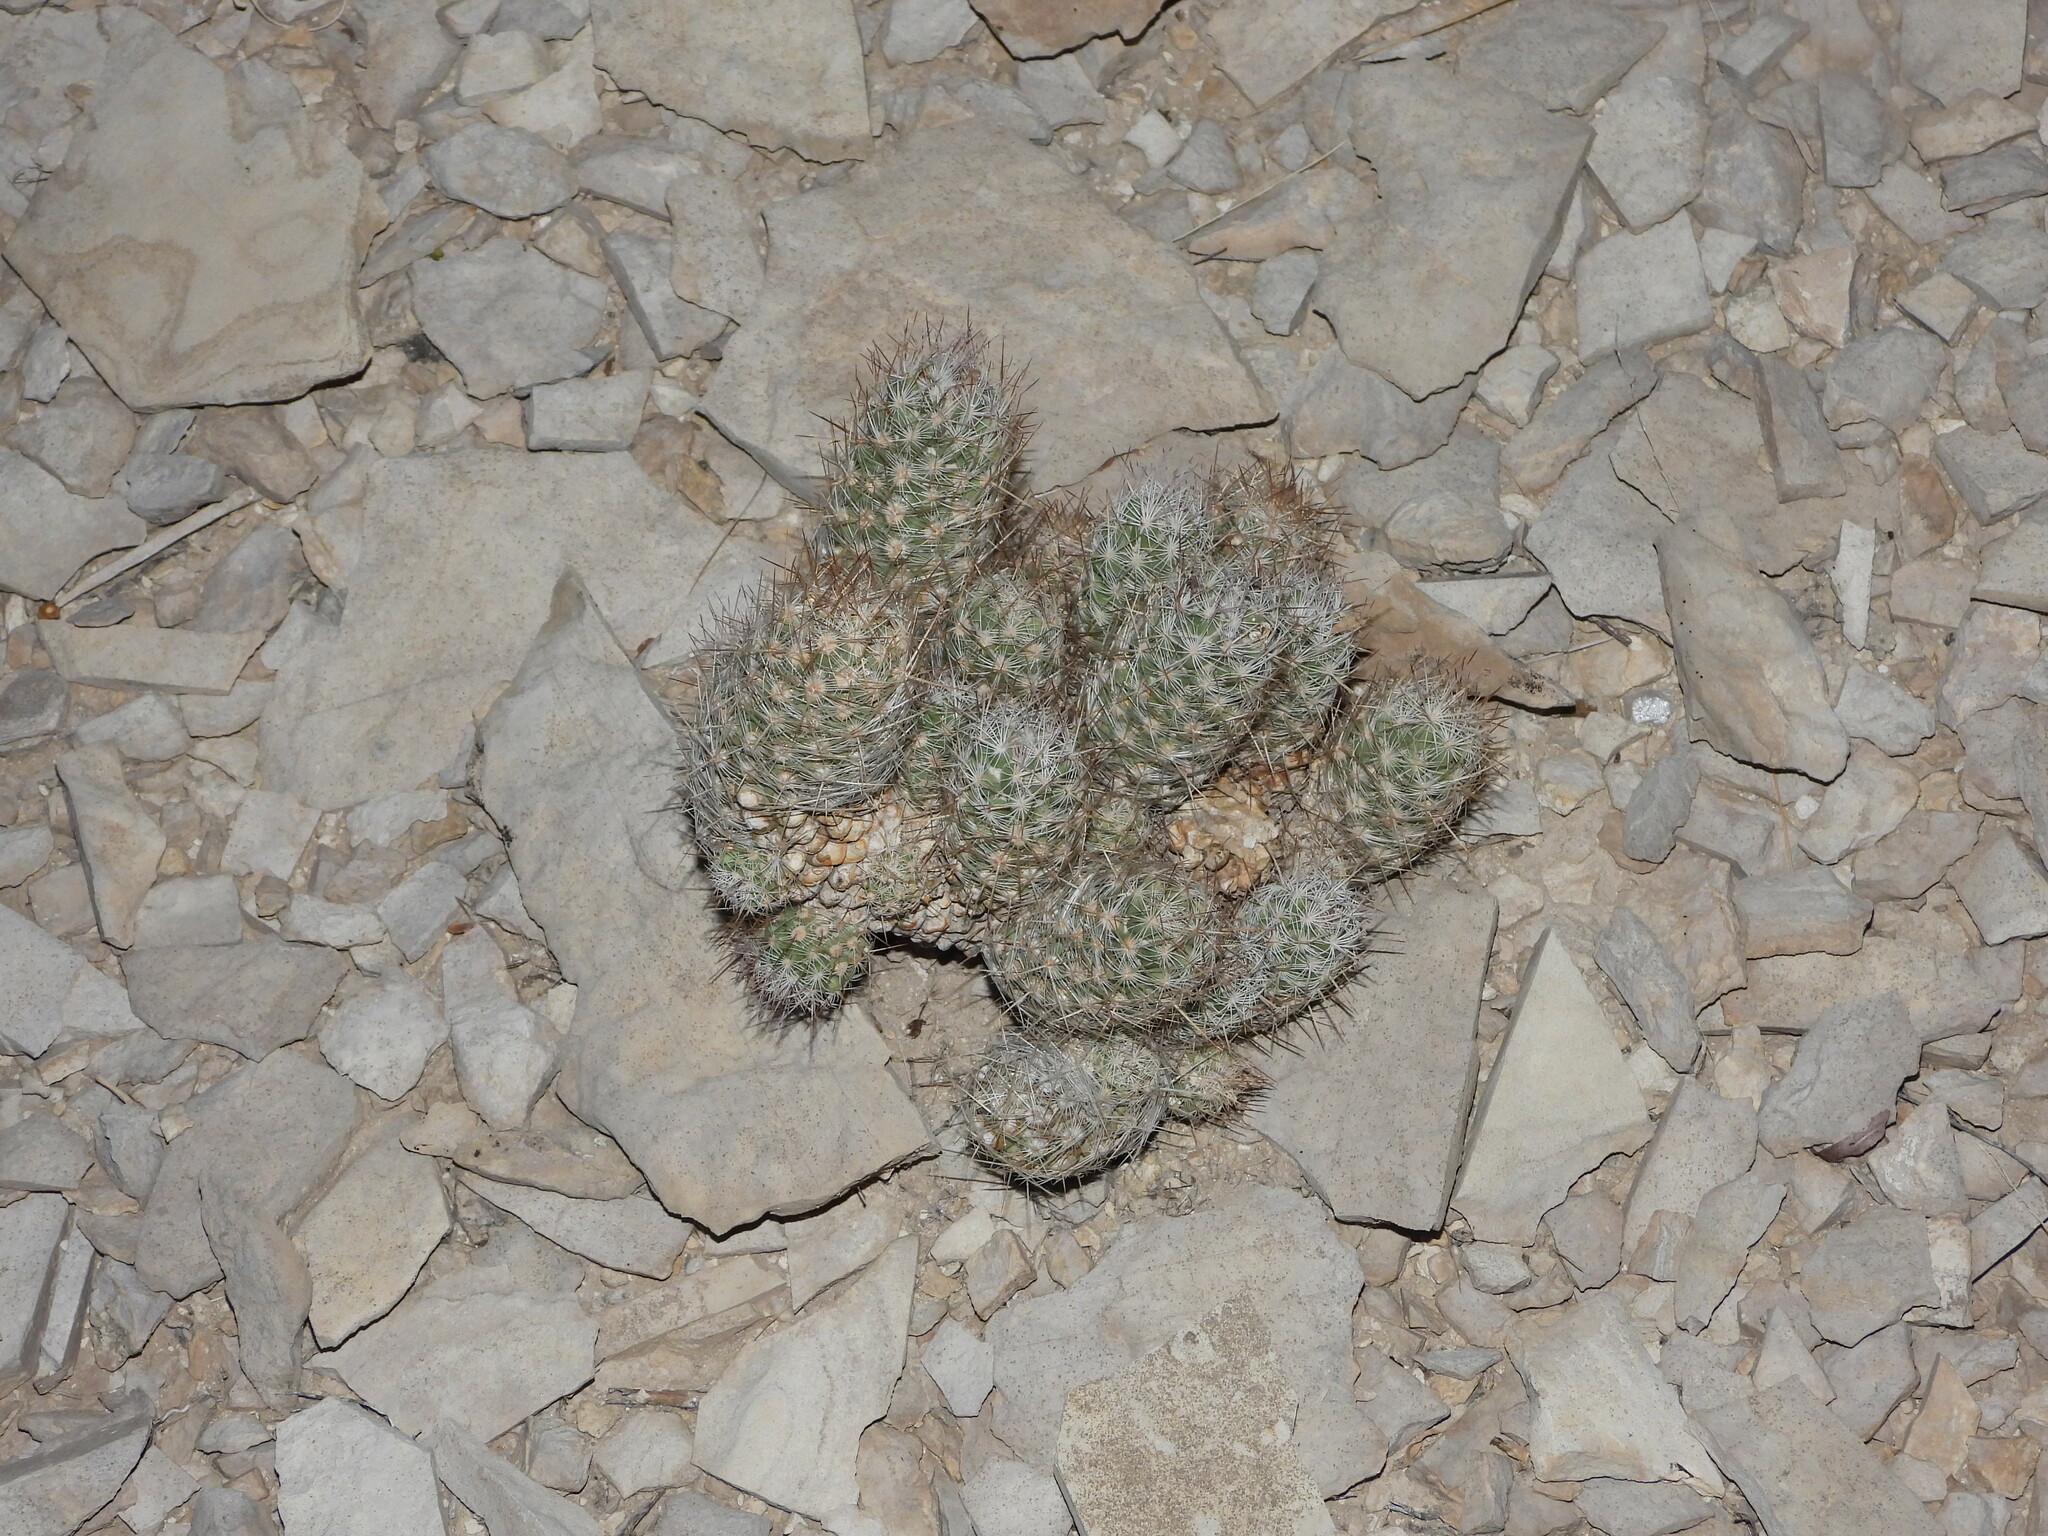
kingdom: Plantae
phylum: Tracheophyta
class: Magnoliopsida
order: Caryophyllales
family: Cactaceae
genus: Pelecyphora
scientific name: Pelecyphora tuberculosa
